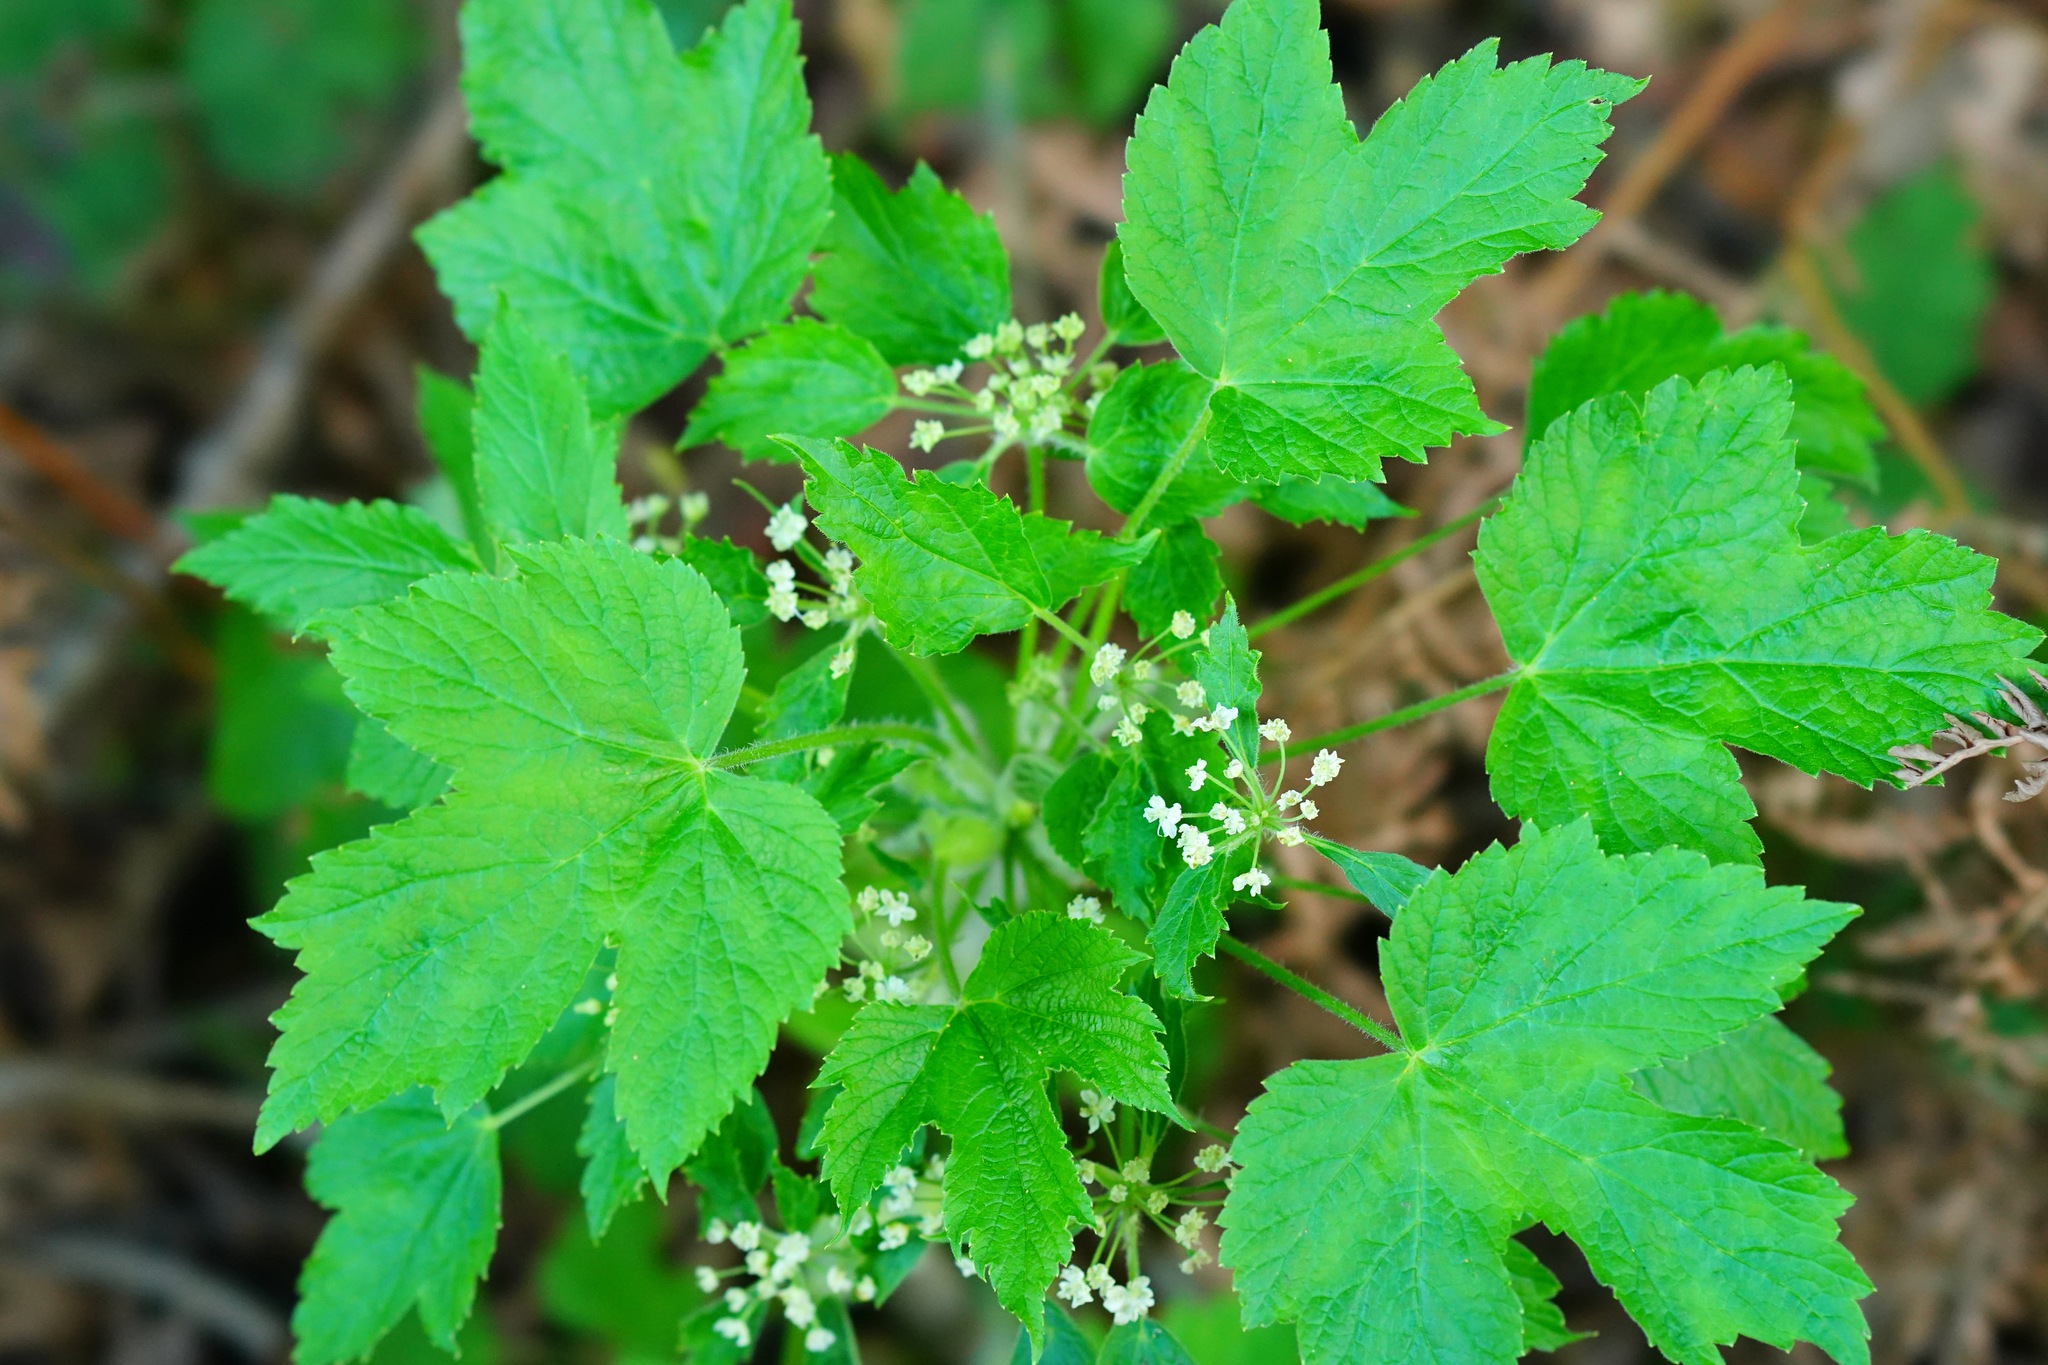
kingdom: Plantae
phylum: Tracheophyta
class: Magnoliopsida
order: Apiales
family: Apiaceae
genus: Heracleum
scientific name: Heracleum maximum
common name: American cow parsnip
